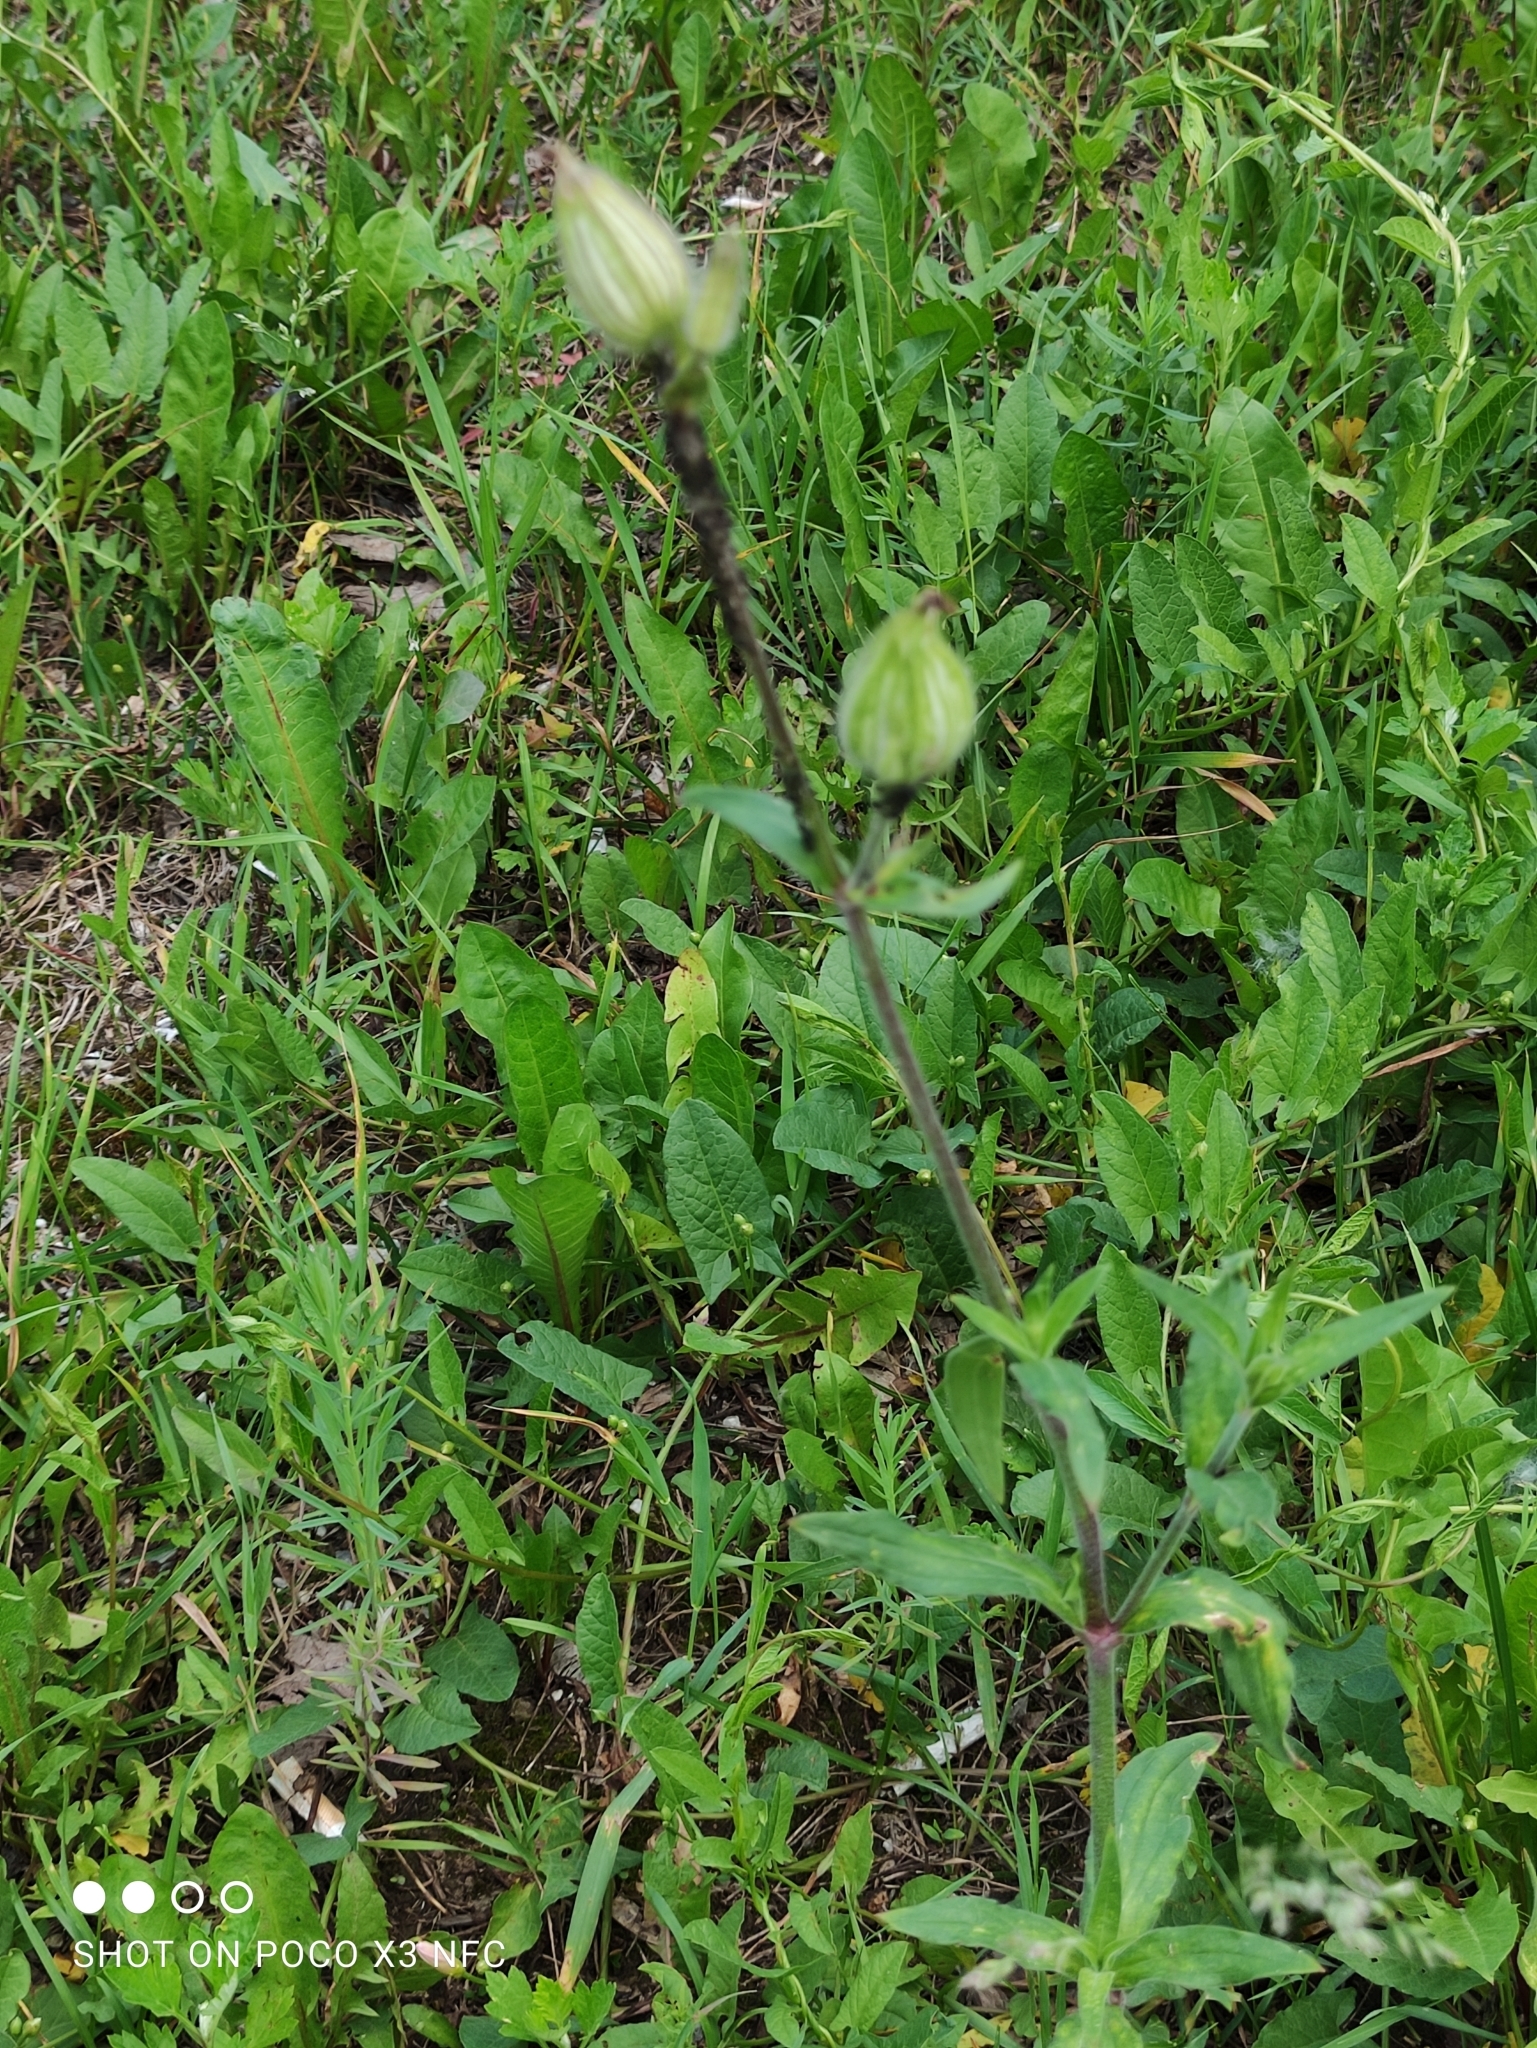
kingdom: Plantae
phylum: Tracheophyta
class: Magnoliopsida
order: Caryophyllales
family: Caryophyllaceae
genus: Silene
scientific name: Silene latifolia
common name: White campion
